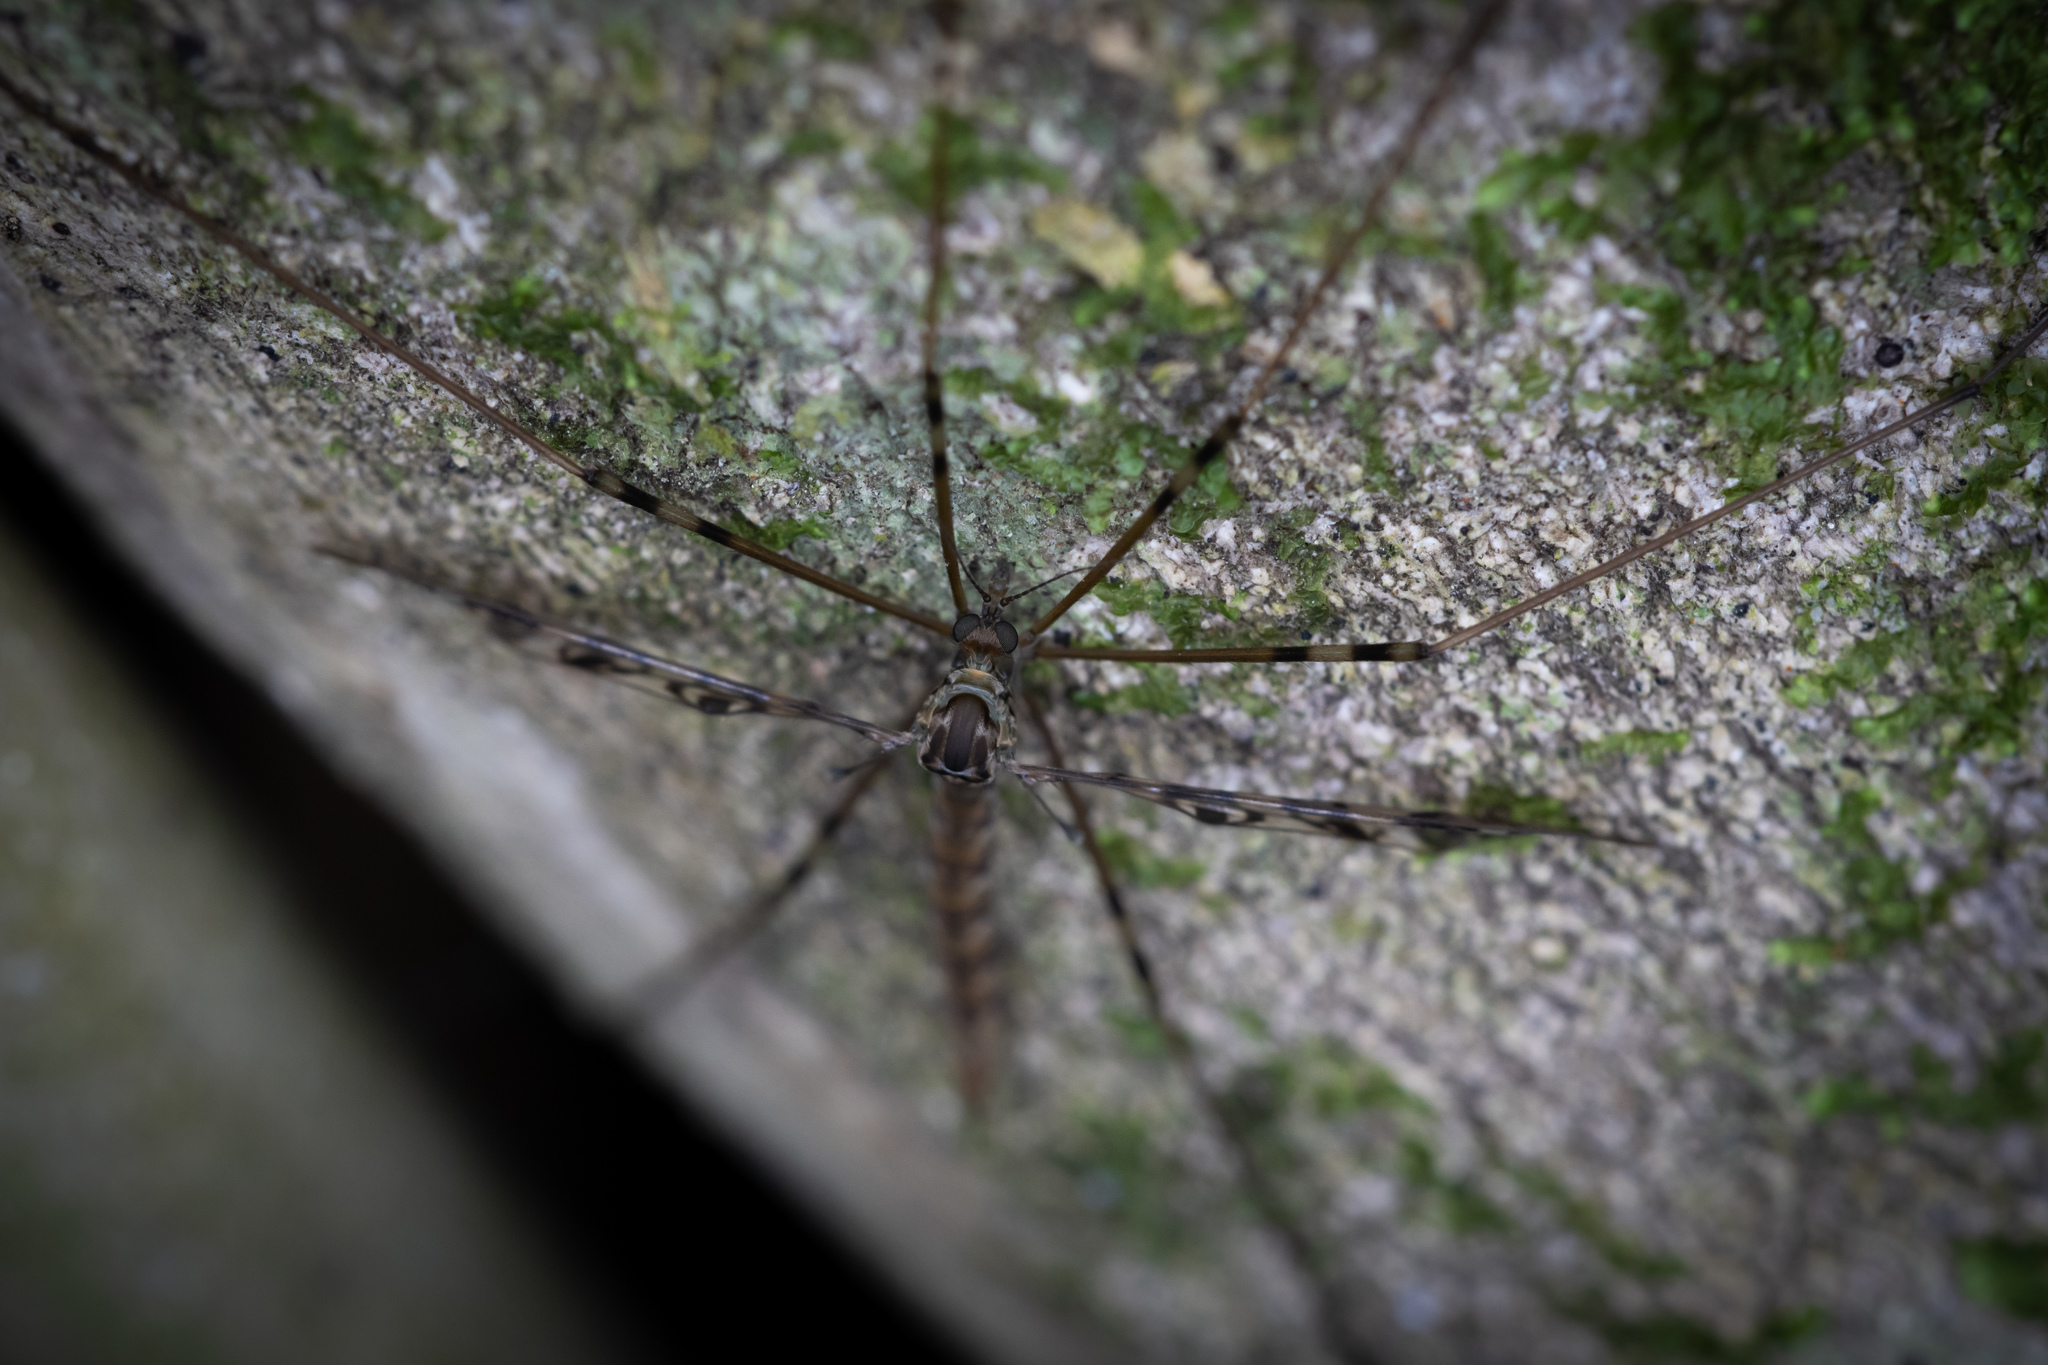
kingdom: Animalia
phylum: Arthropoda
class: Insecta
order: Diptera
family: Limoniidae
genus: Austrolimnophila
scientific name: Austrolimnophila argus
